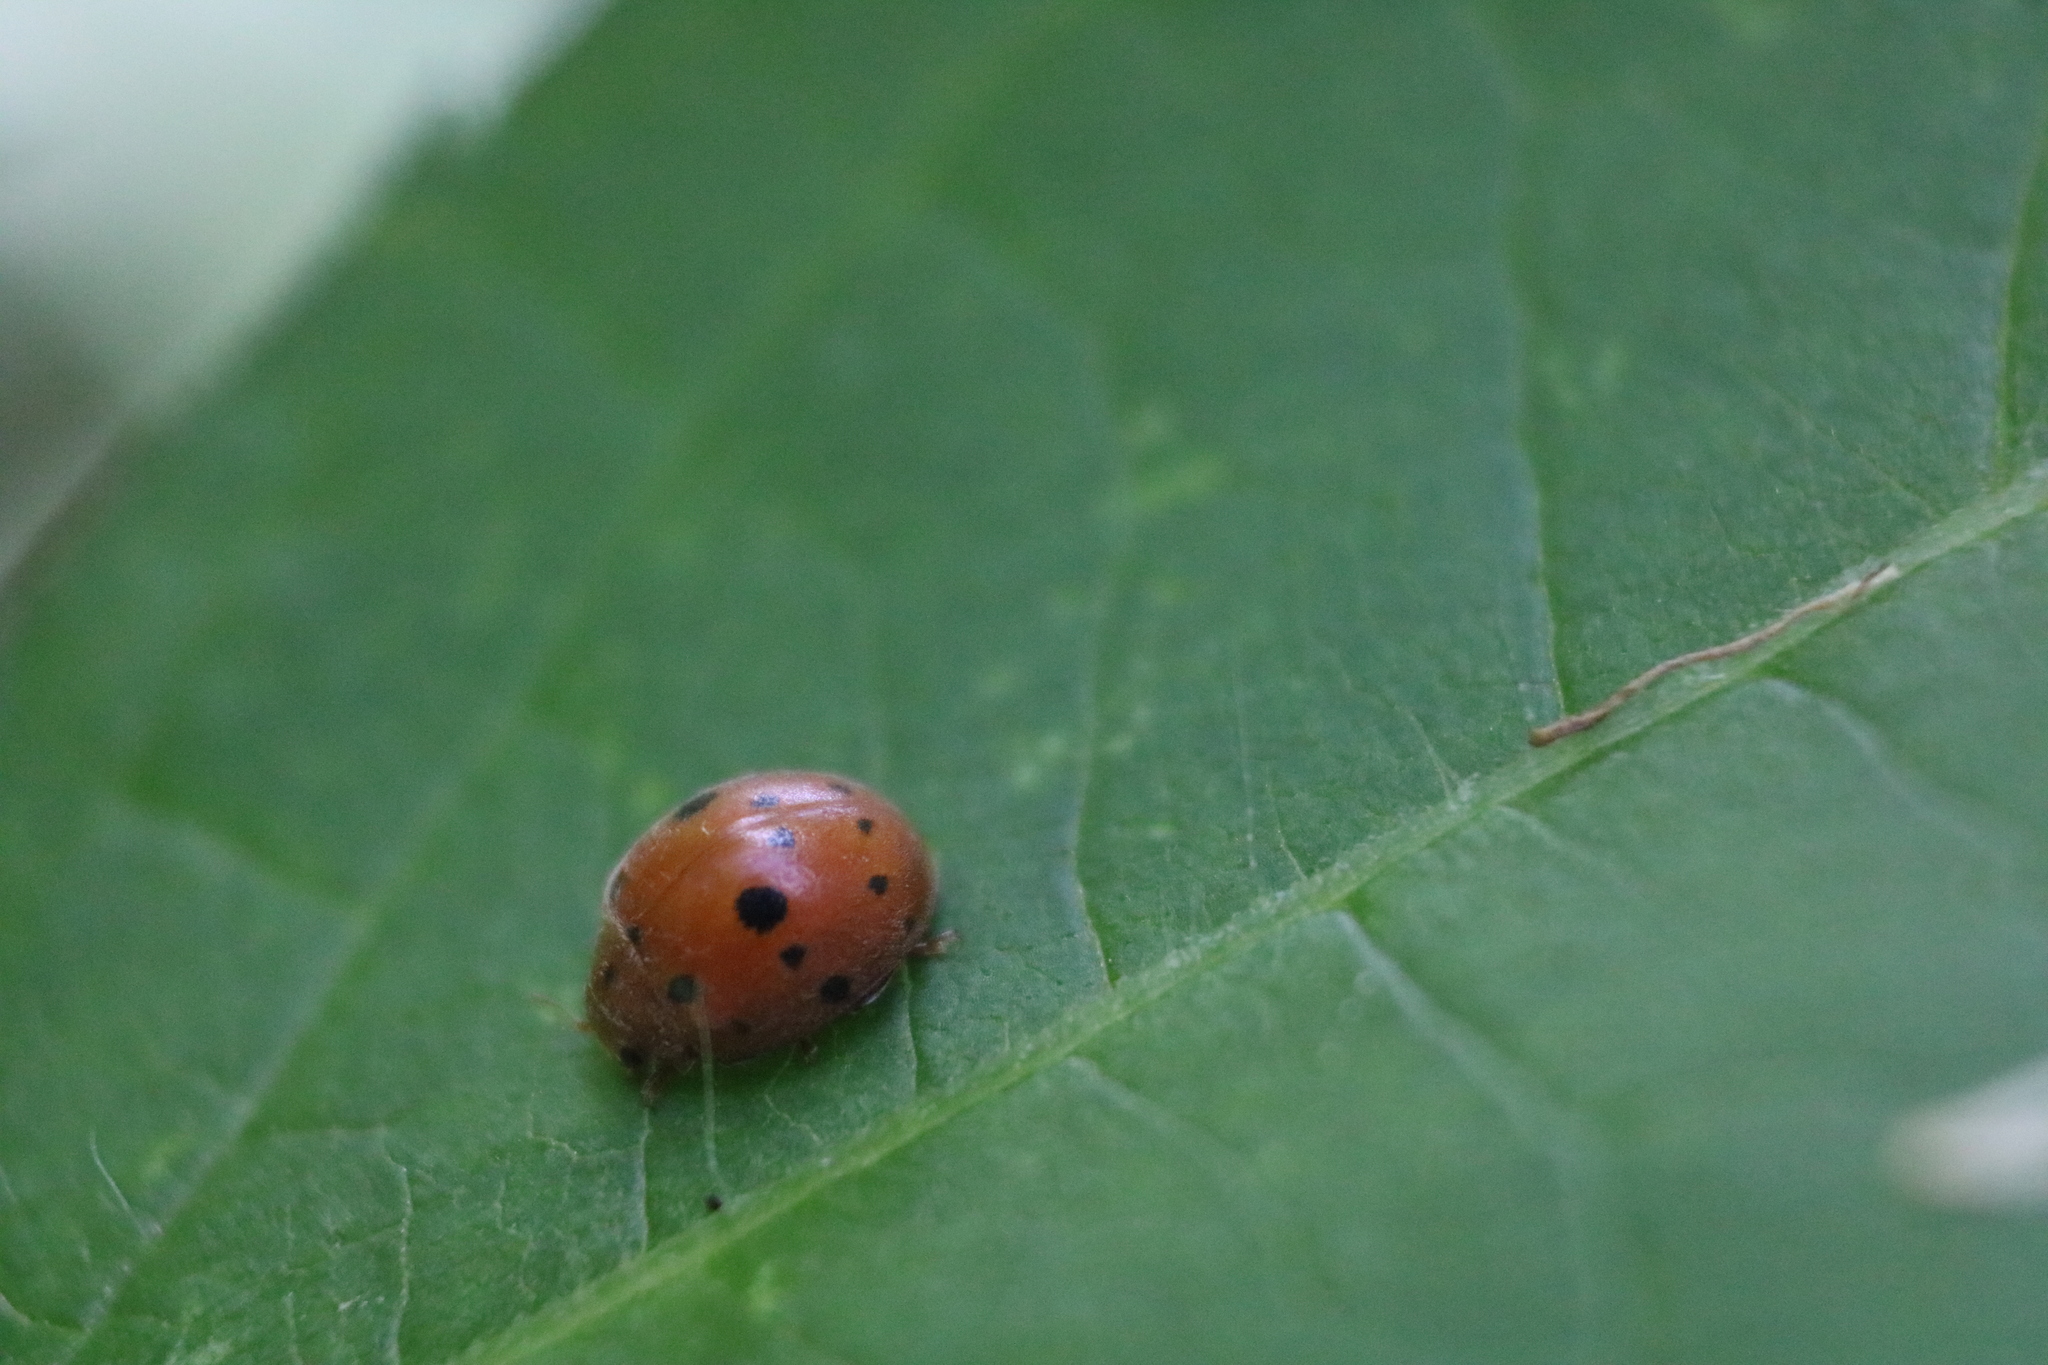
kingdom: Animalia
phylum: Arthropoda
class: Insecta
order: Coleoptera
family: Coccinellidae
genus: Subcoccinella
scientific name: Subcoccinella vigintiquatuorpunctata
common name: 24-spot ladybird
